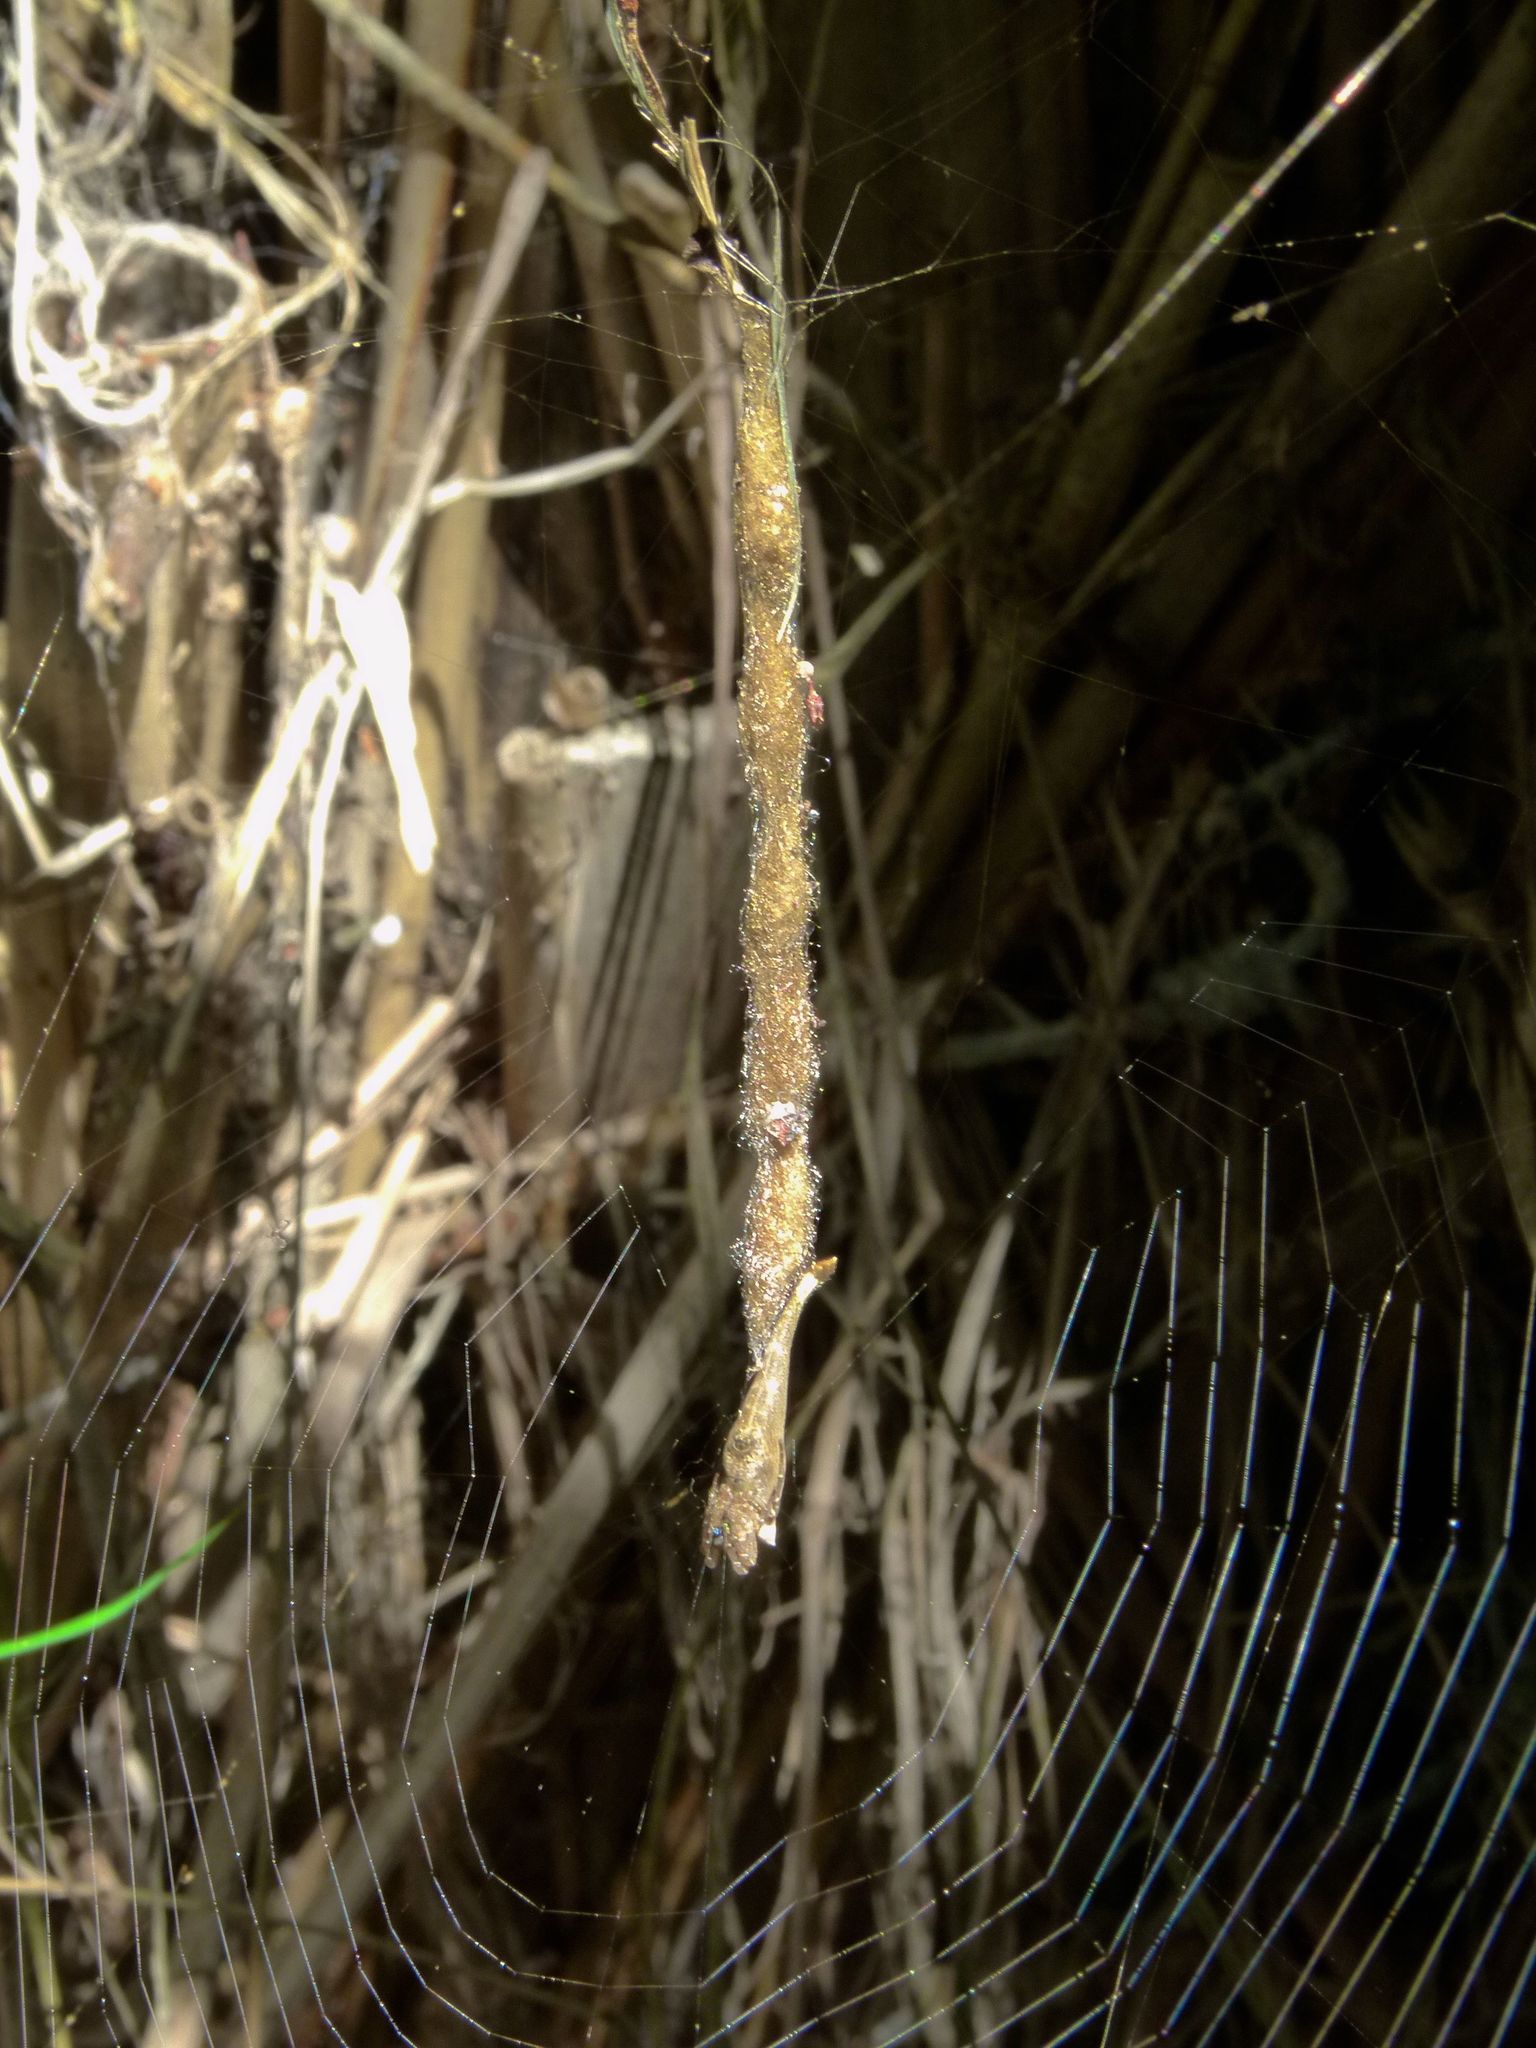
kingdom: Animalia
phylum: Arthropoda
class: Arachnida
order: Araneae
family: Araneidae
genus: Arachnura
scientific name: Arachnura feredayi
